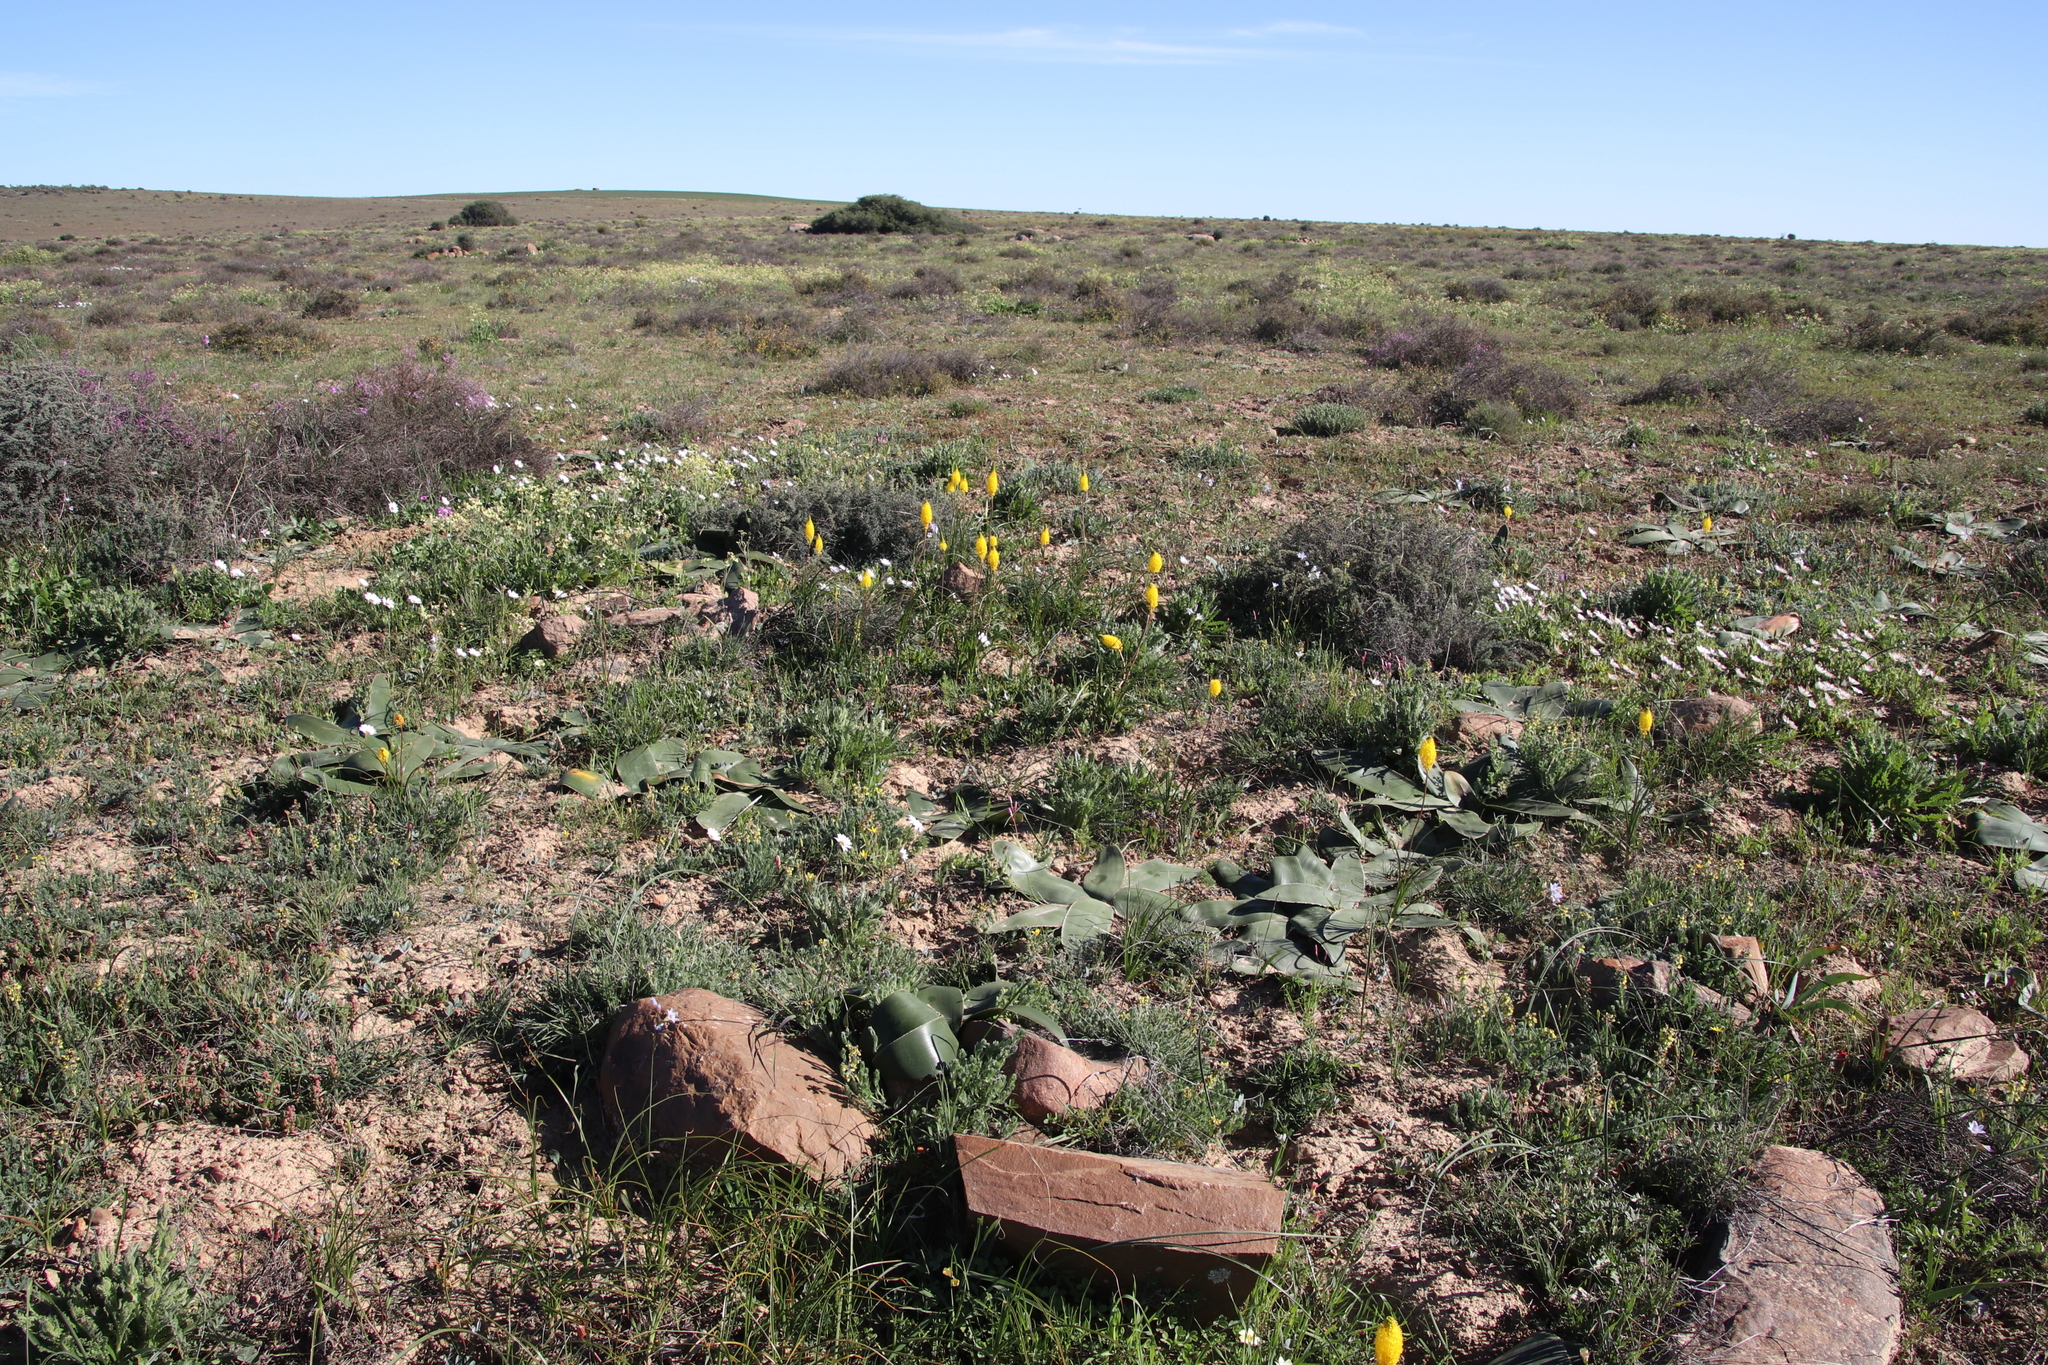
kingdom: Plantae
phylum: Tracheophyta
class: Liliopsida
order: Asparagales
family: Asphodelaceae
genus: Bulbinella
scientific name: Bulbinella nutans
